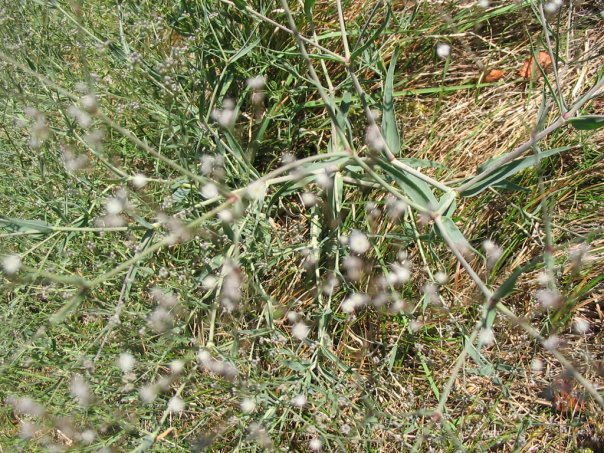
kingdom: Plantae
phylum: Tracheophyta
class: Magnoliopsida
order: Caryophyllales
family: Caryophyllaceae
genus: Gypsophila
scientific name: Gypsophila paniculata
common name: Baby's-breath
